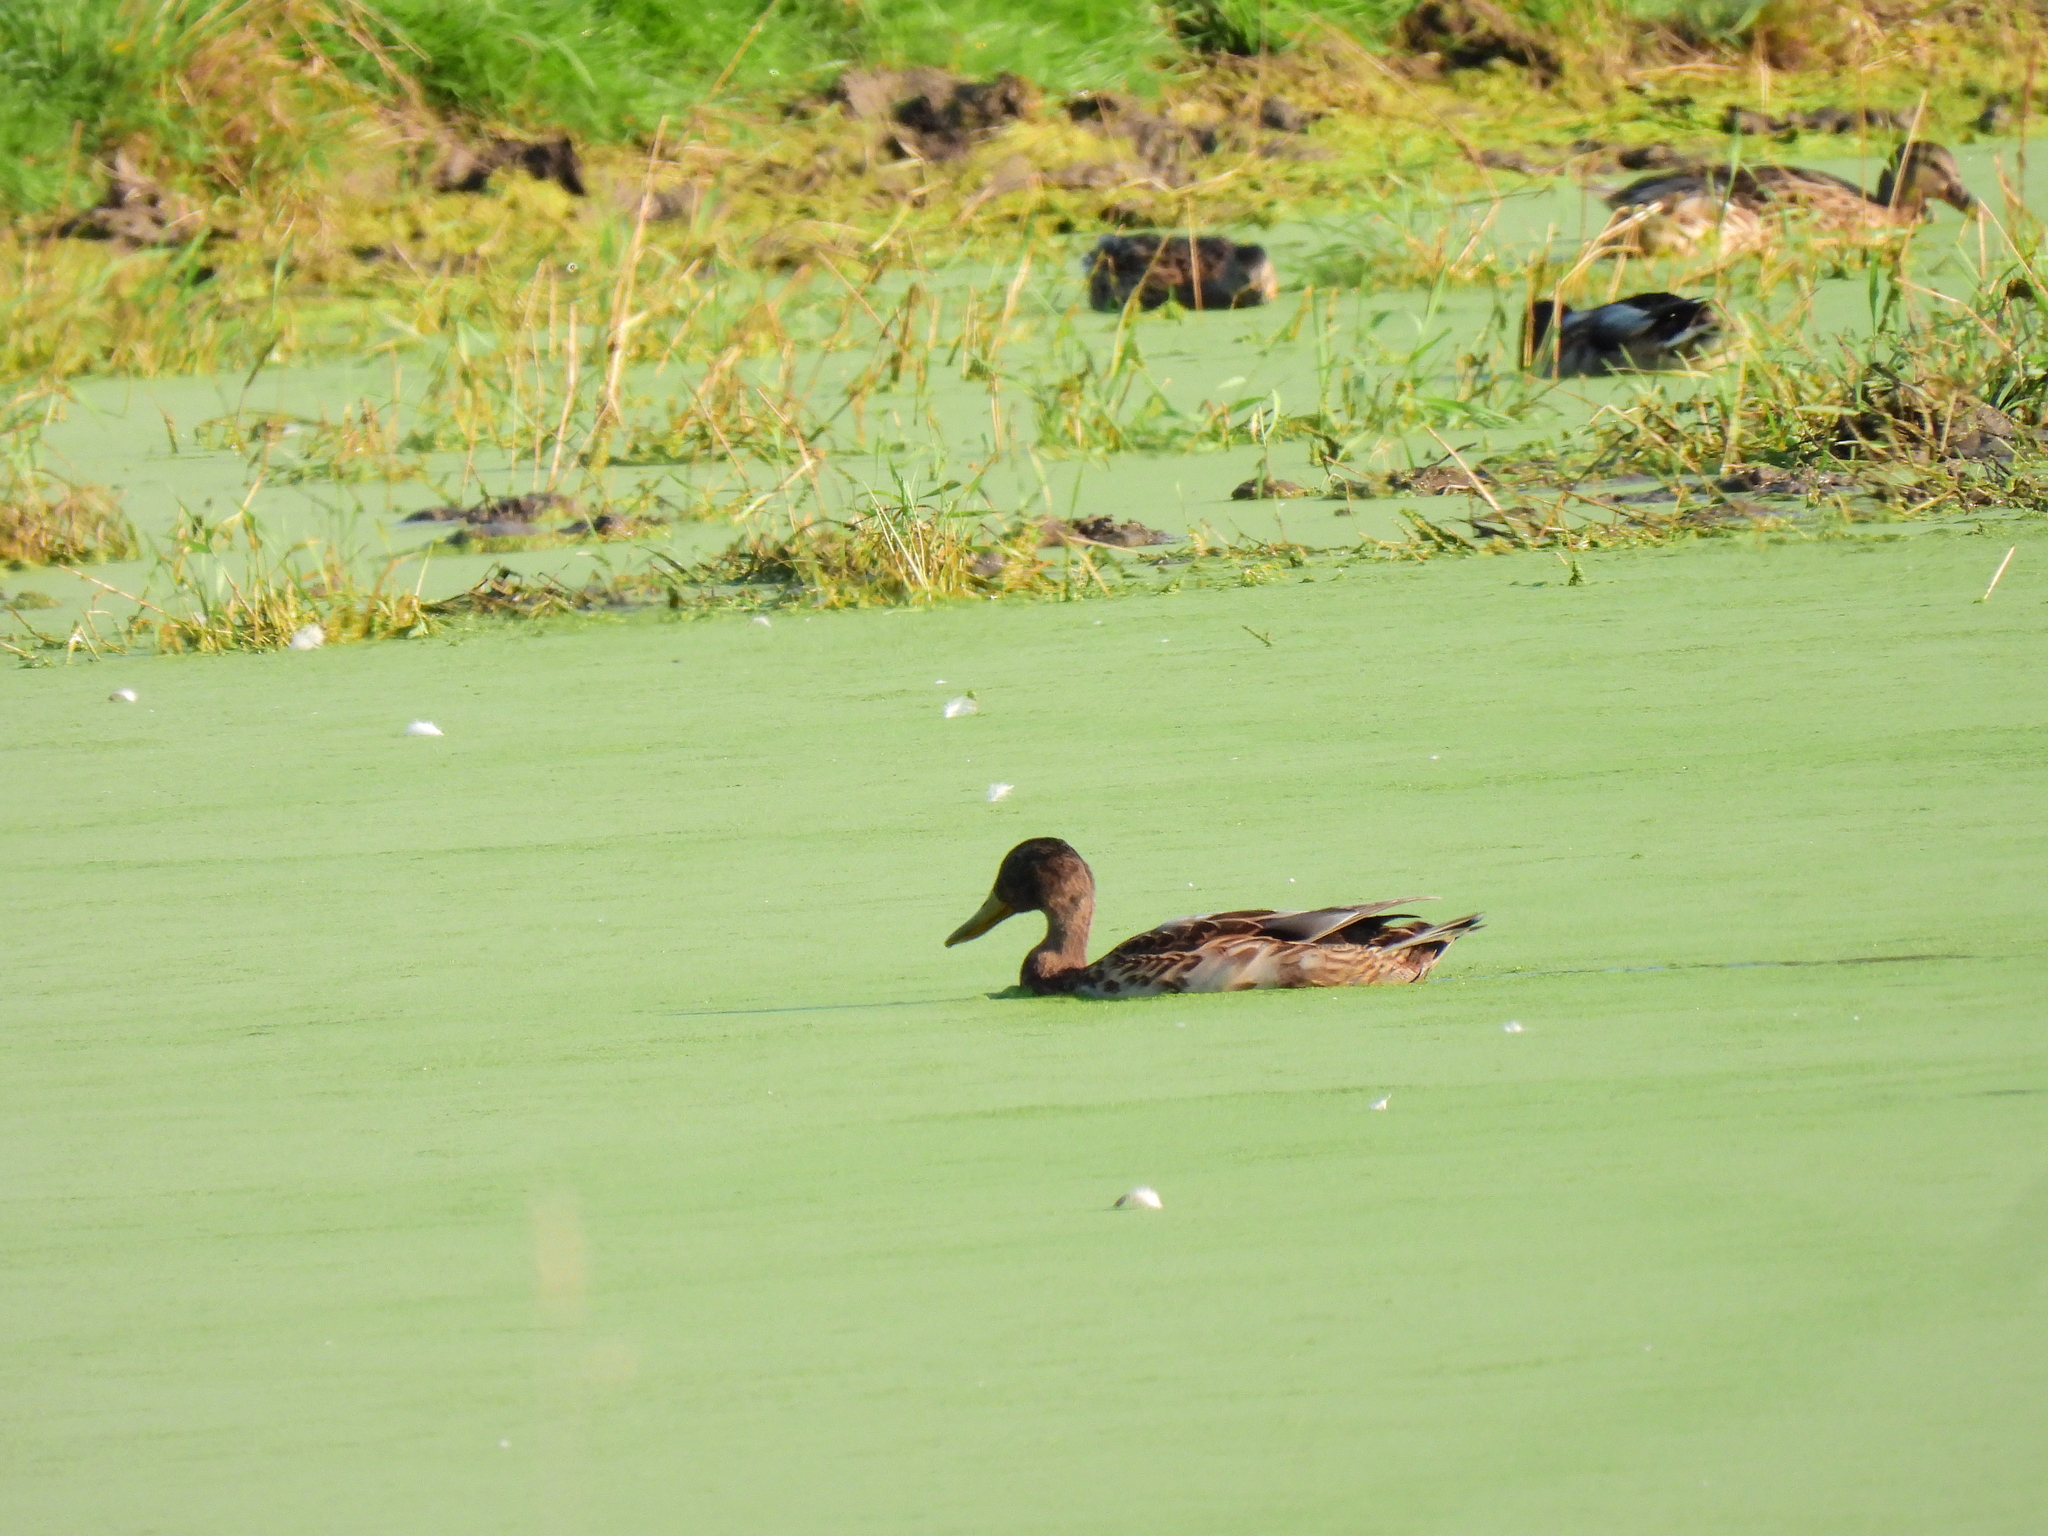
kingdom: Animalia
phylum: Chordata
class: Aves
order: Anseriformes
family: Anatidae
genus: Anas
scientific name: Anas platyrhynchos
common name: Mallard
